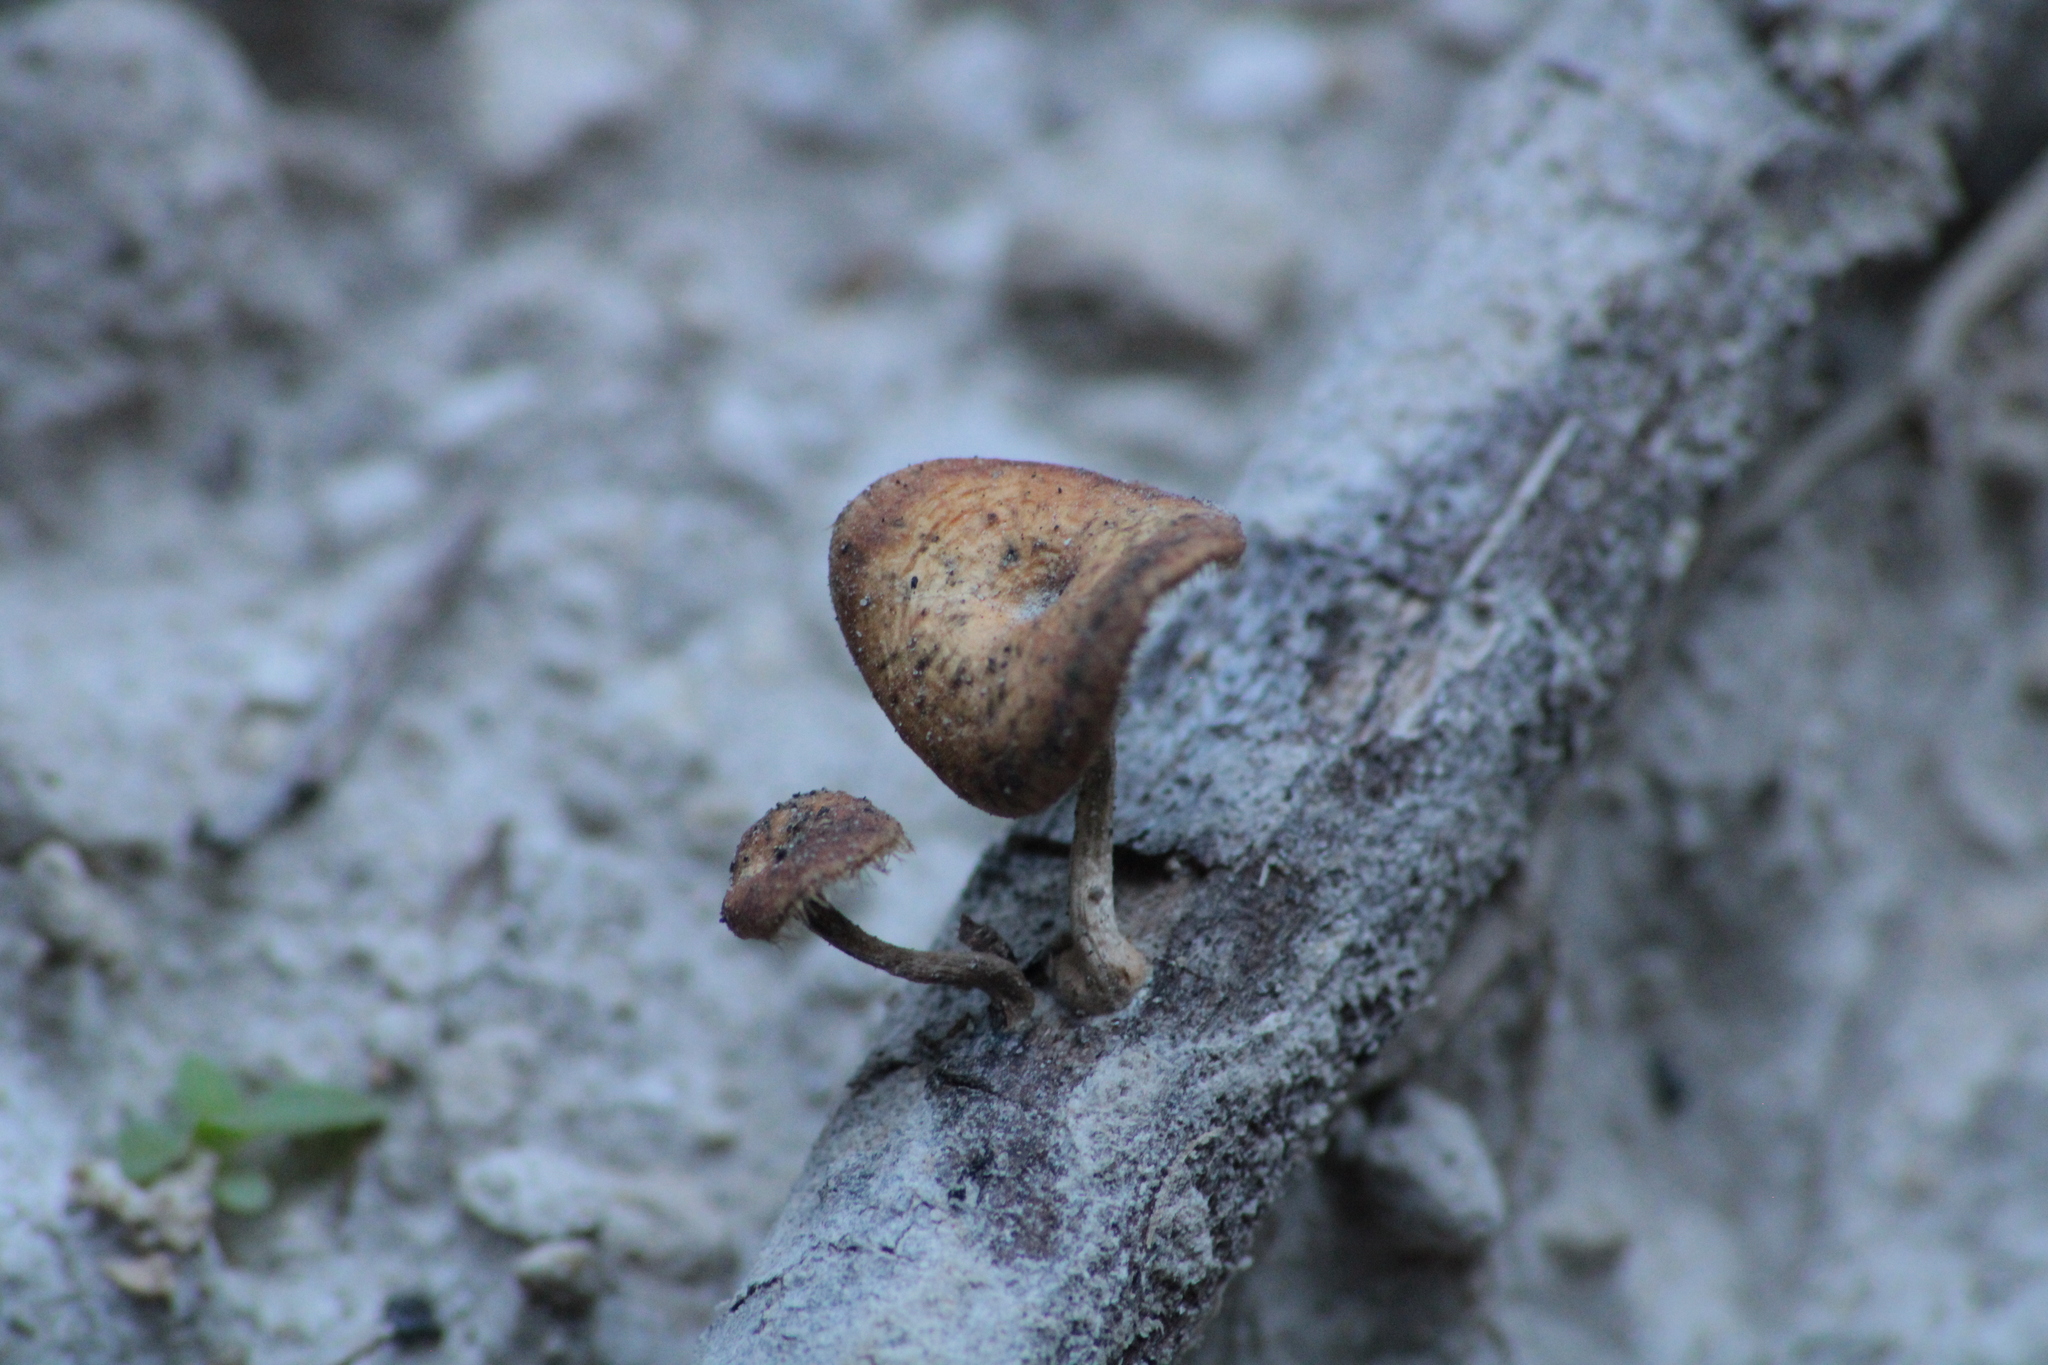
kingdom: Fungi
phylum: Basidiomycota
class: Agaricomycetes
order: Polyporales
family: Polyporaceae
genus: Lentinus
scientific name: Lentinus flexipes
